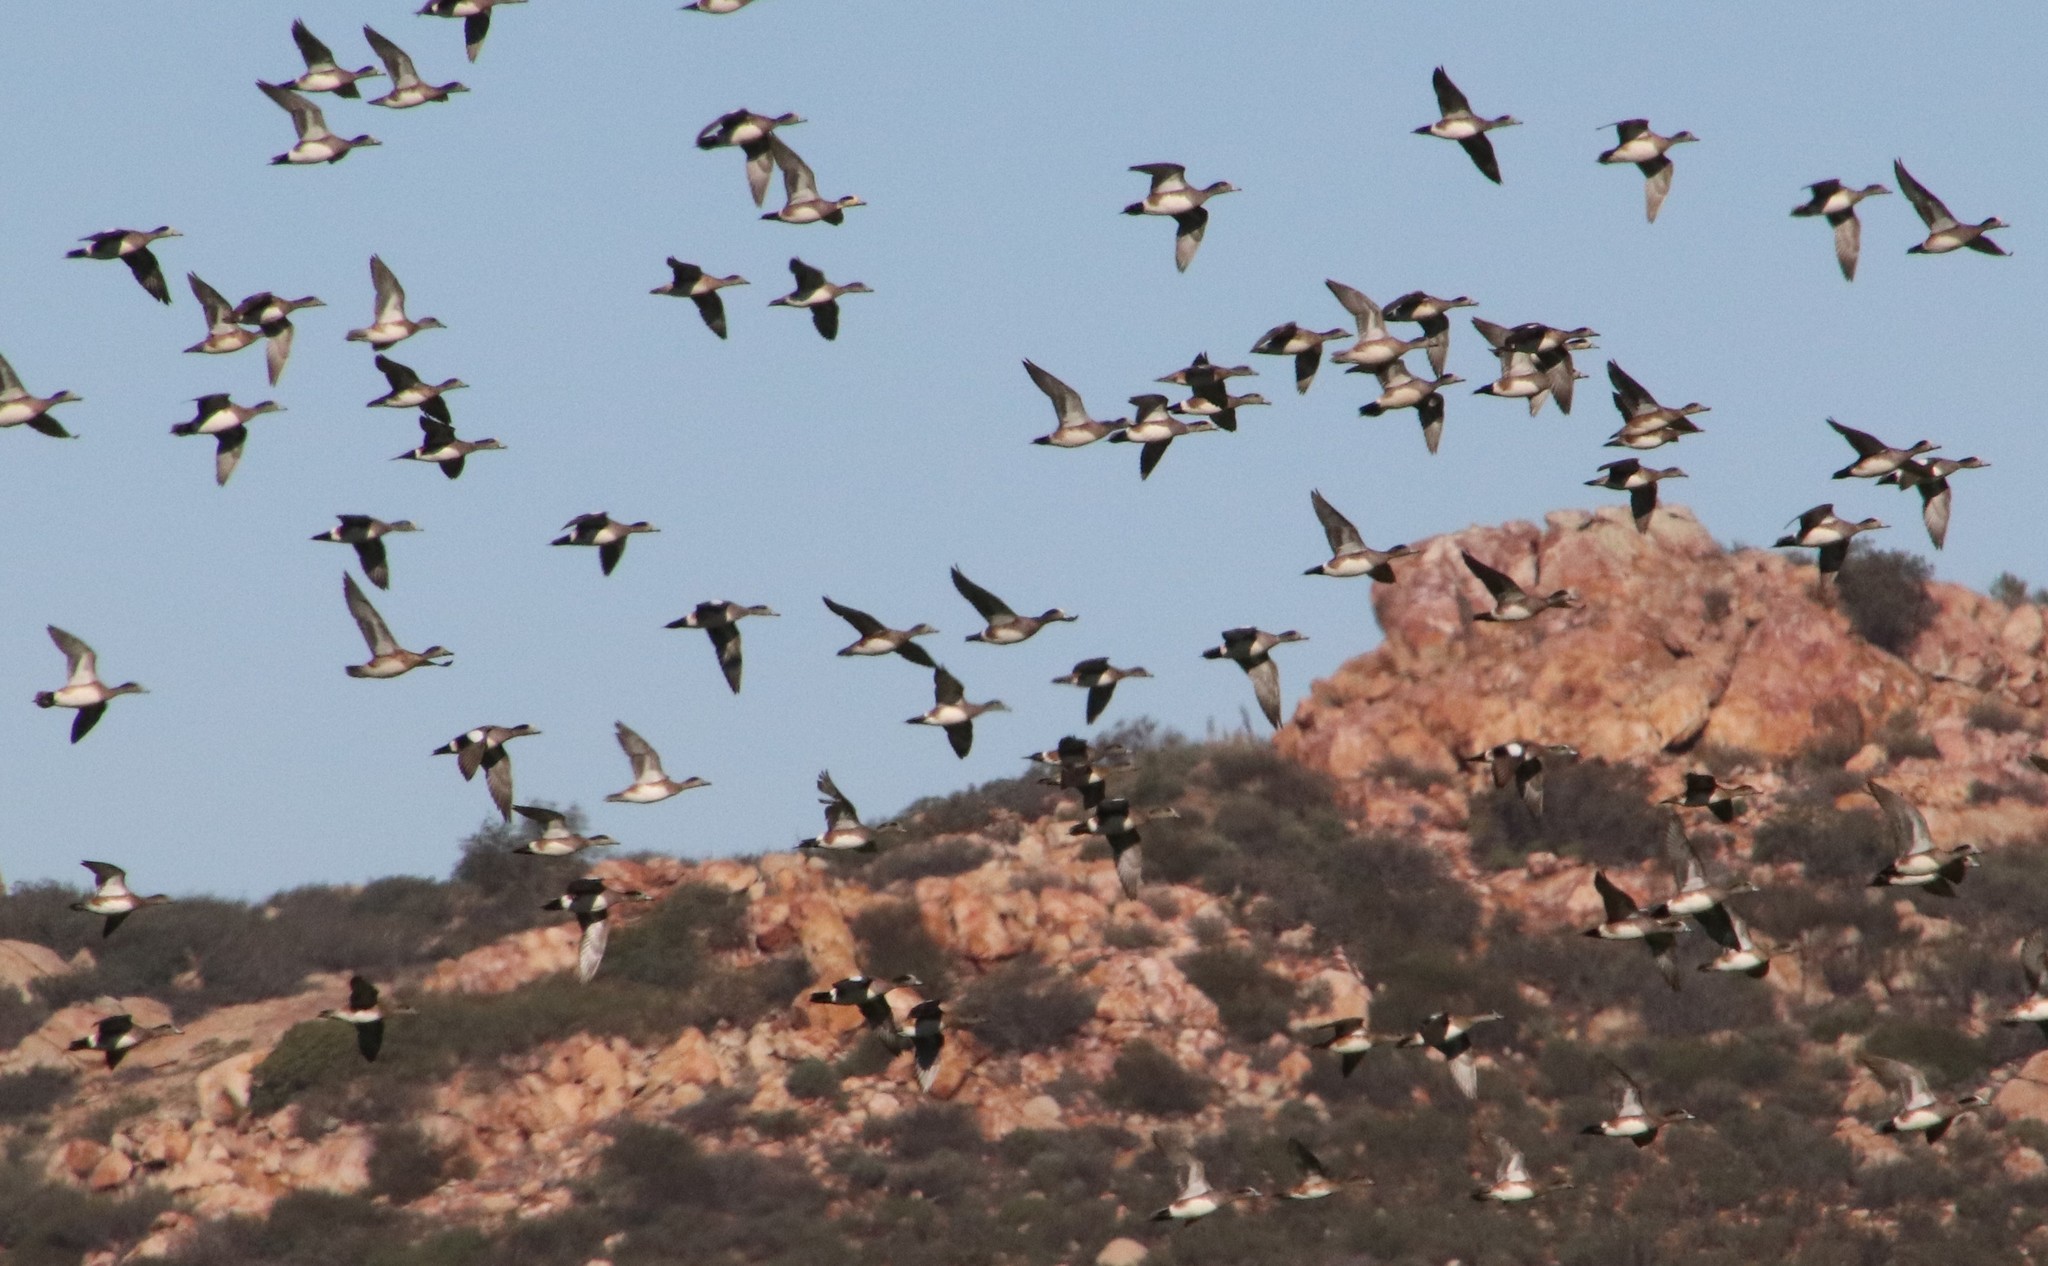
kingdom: Animalia
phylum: Chordata
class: Aves
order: Anseriformes
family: Anatidae
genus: Mareca
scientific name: Mareca americana
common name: American wigeon
